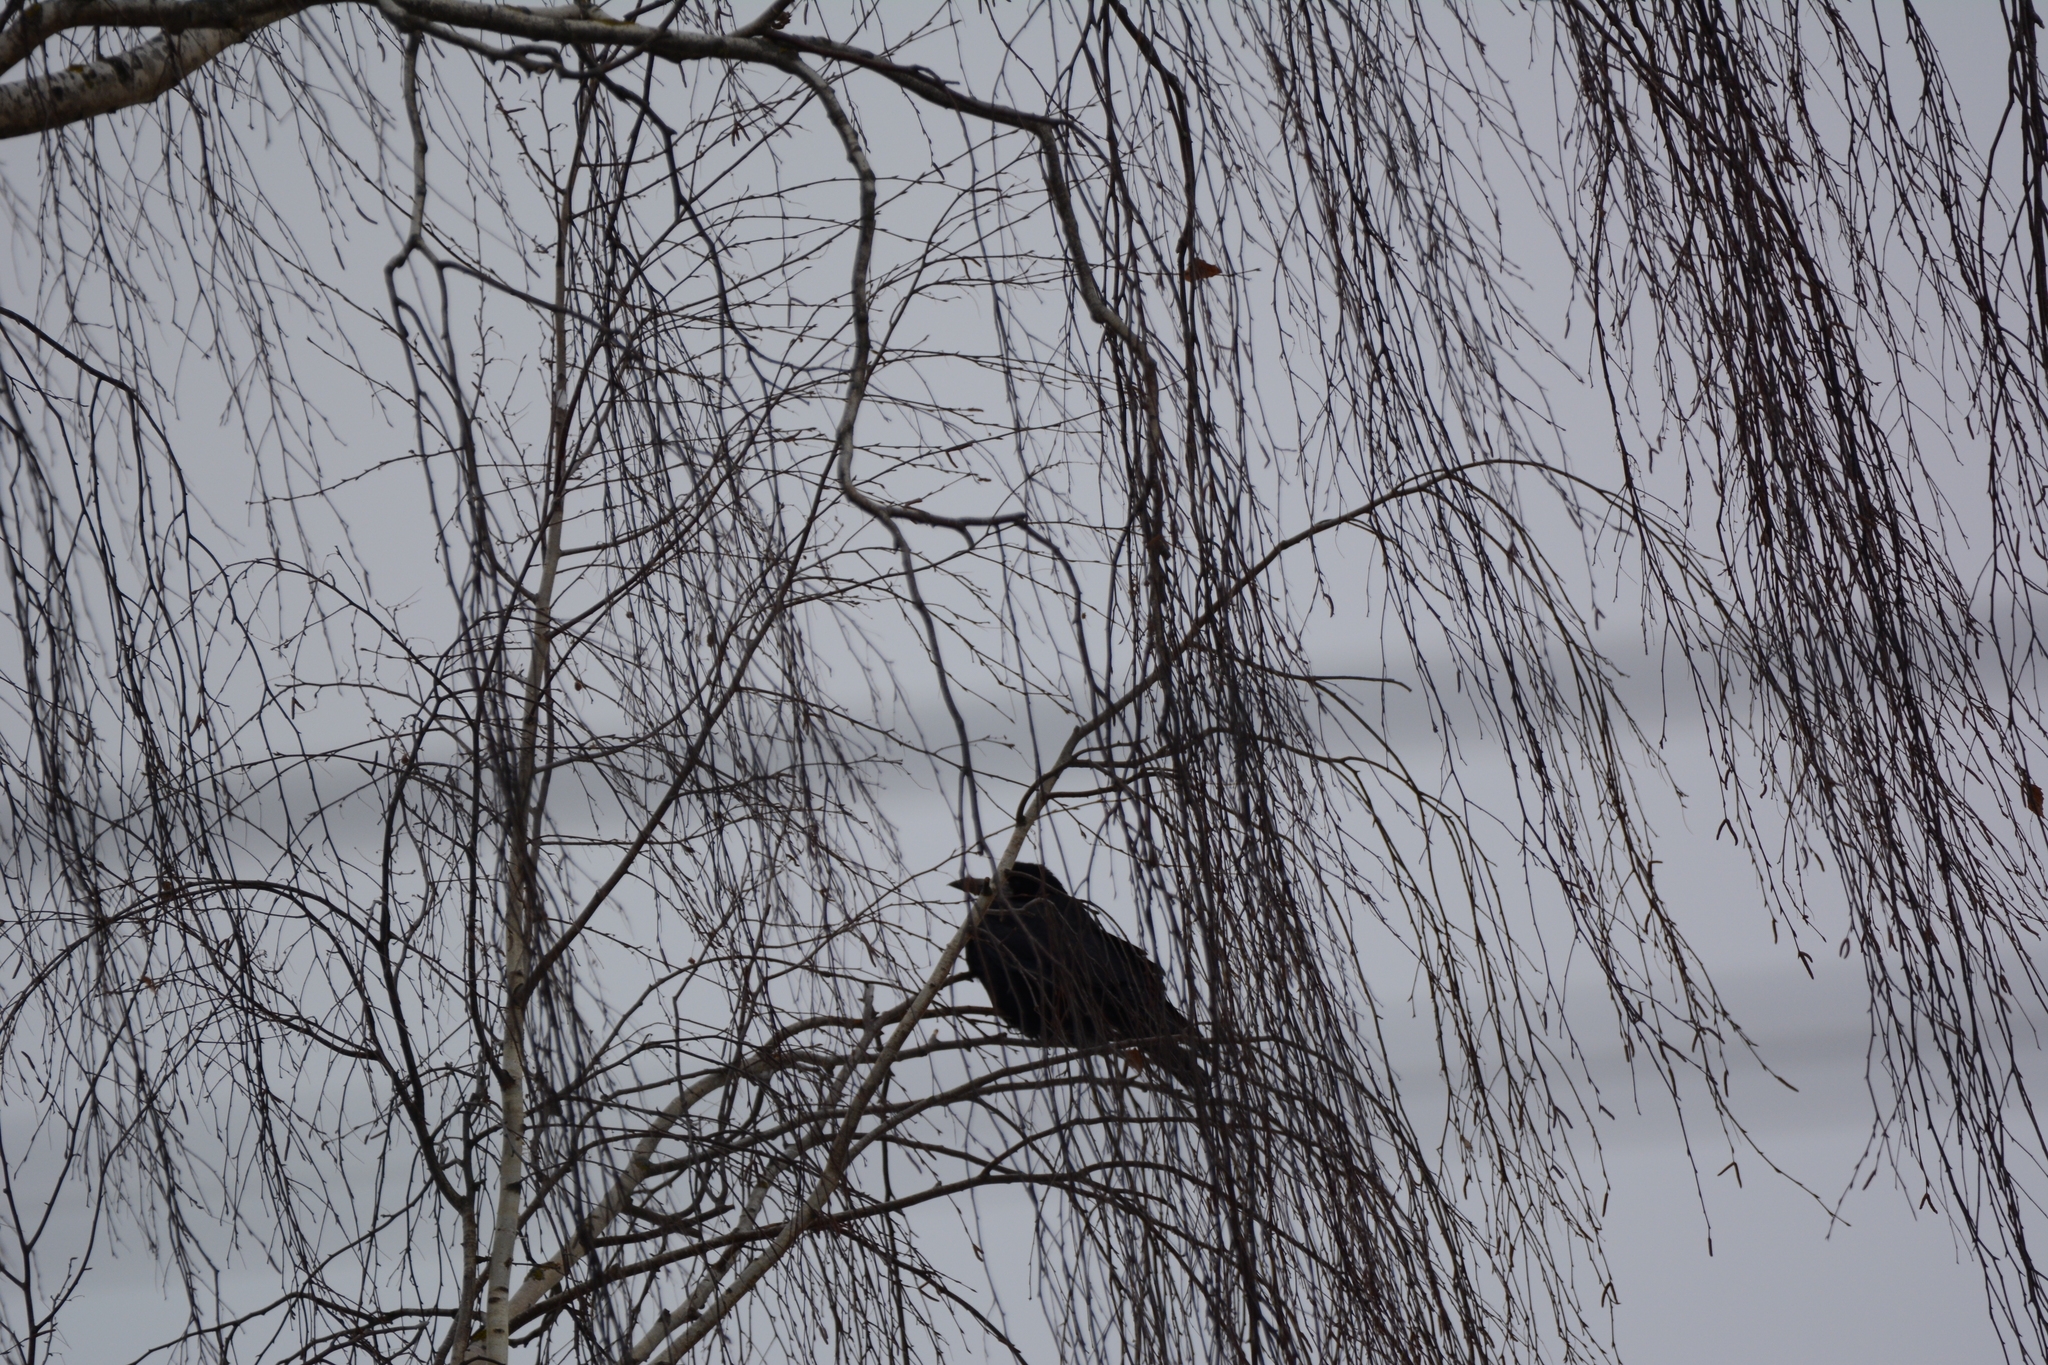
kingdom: Animalia
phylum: Chordata
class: Aves
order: Passeriformes
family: Corvidae
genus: Corvus
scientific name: Corvus frugilegus
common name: Rook
